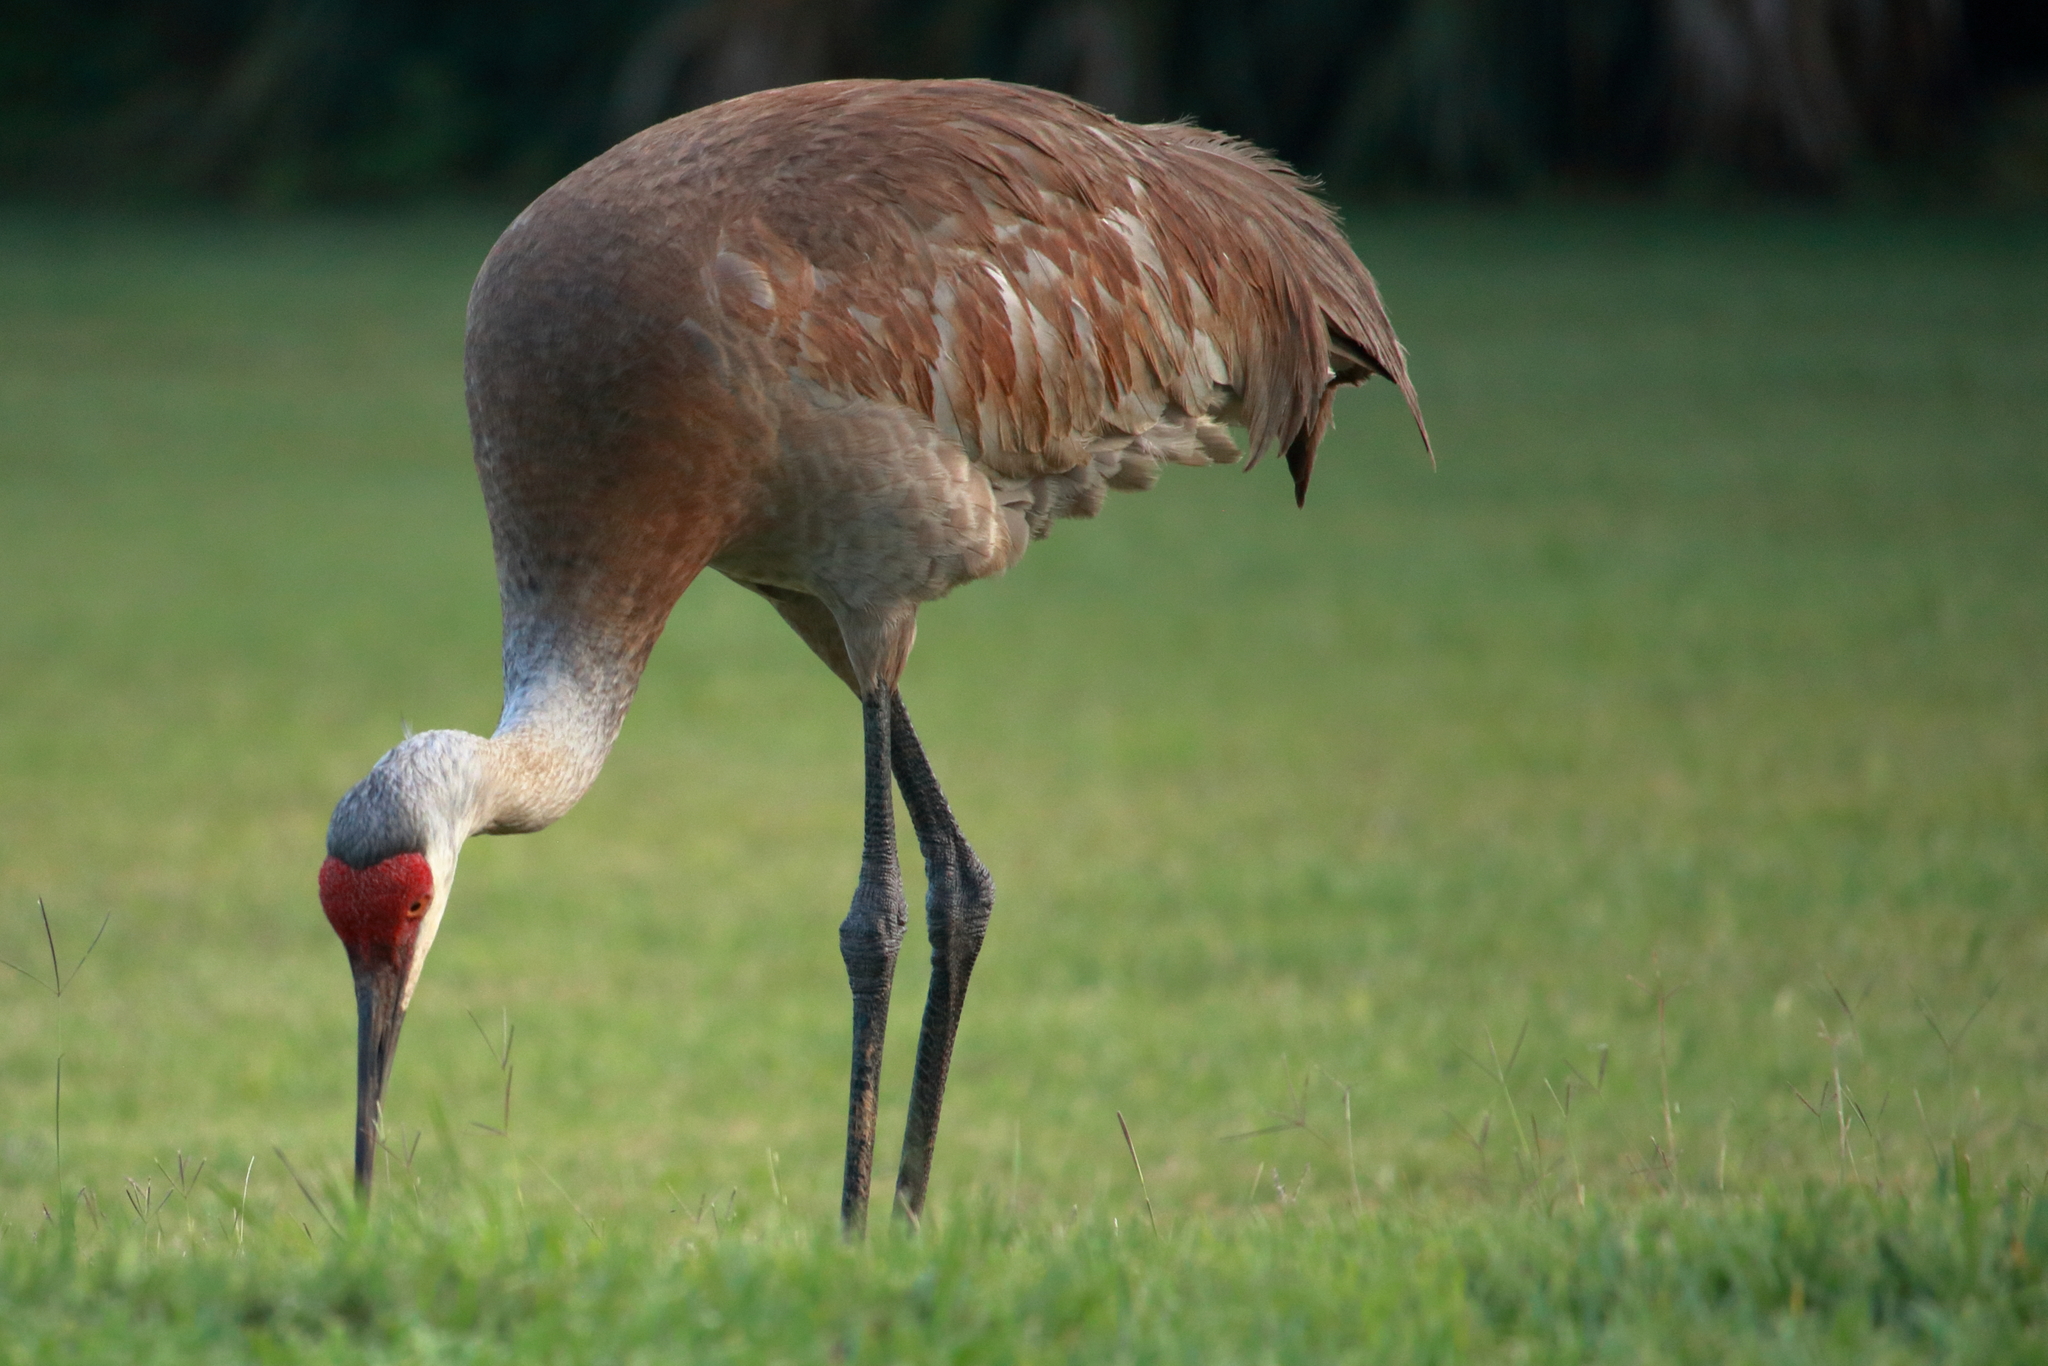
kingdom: Animalia
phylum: Chordata
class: Aves
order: Gruiformes
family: Gruidae
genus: Grus
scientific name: Grus canadensis
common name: Sandhill crane
